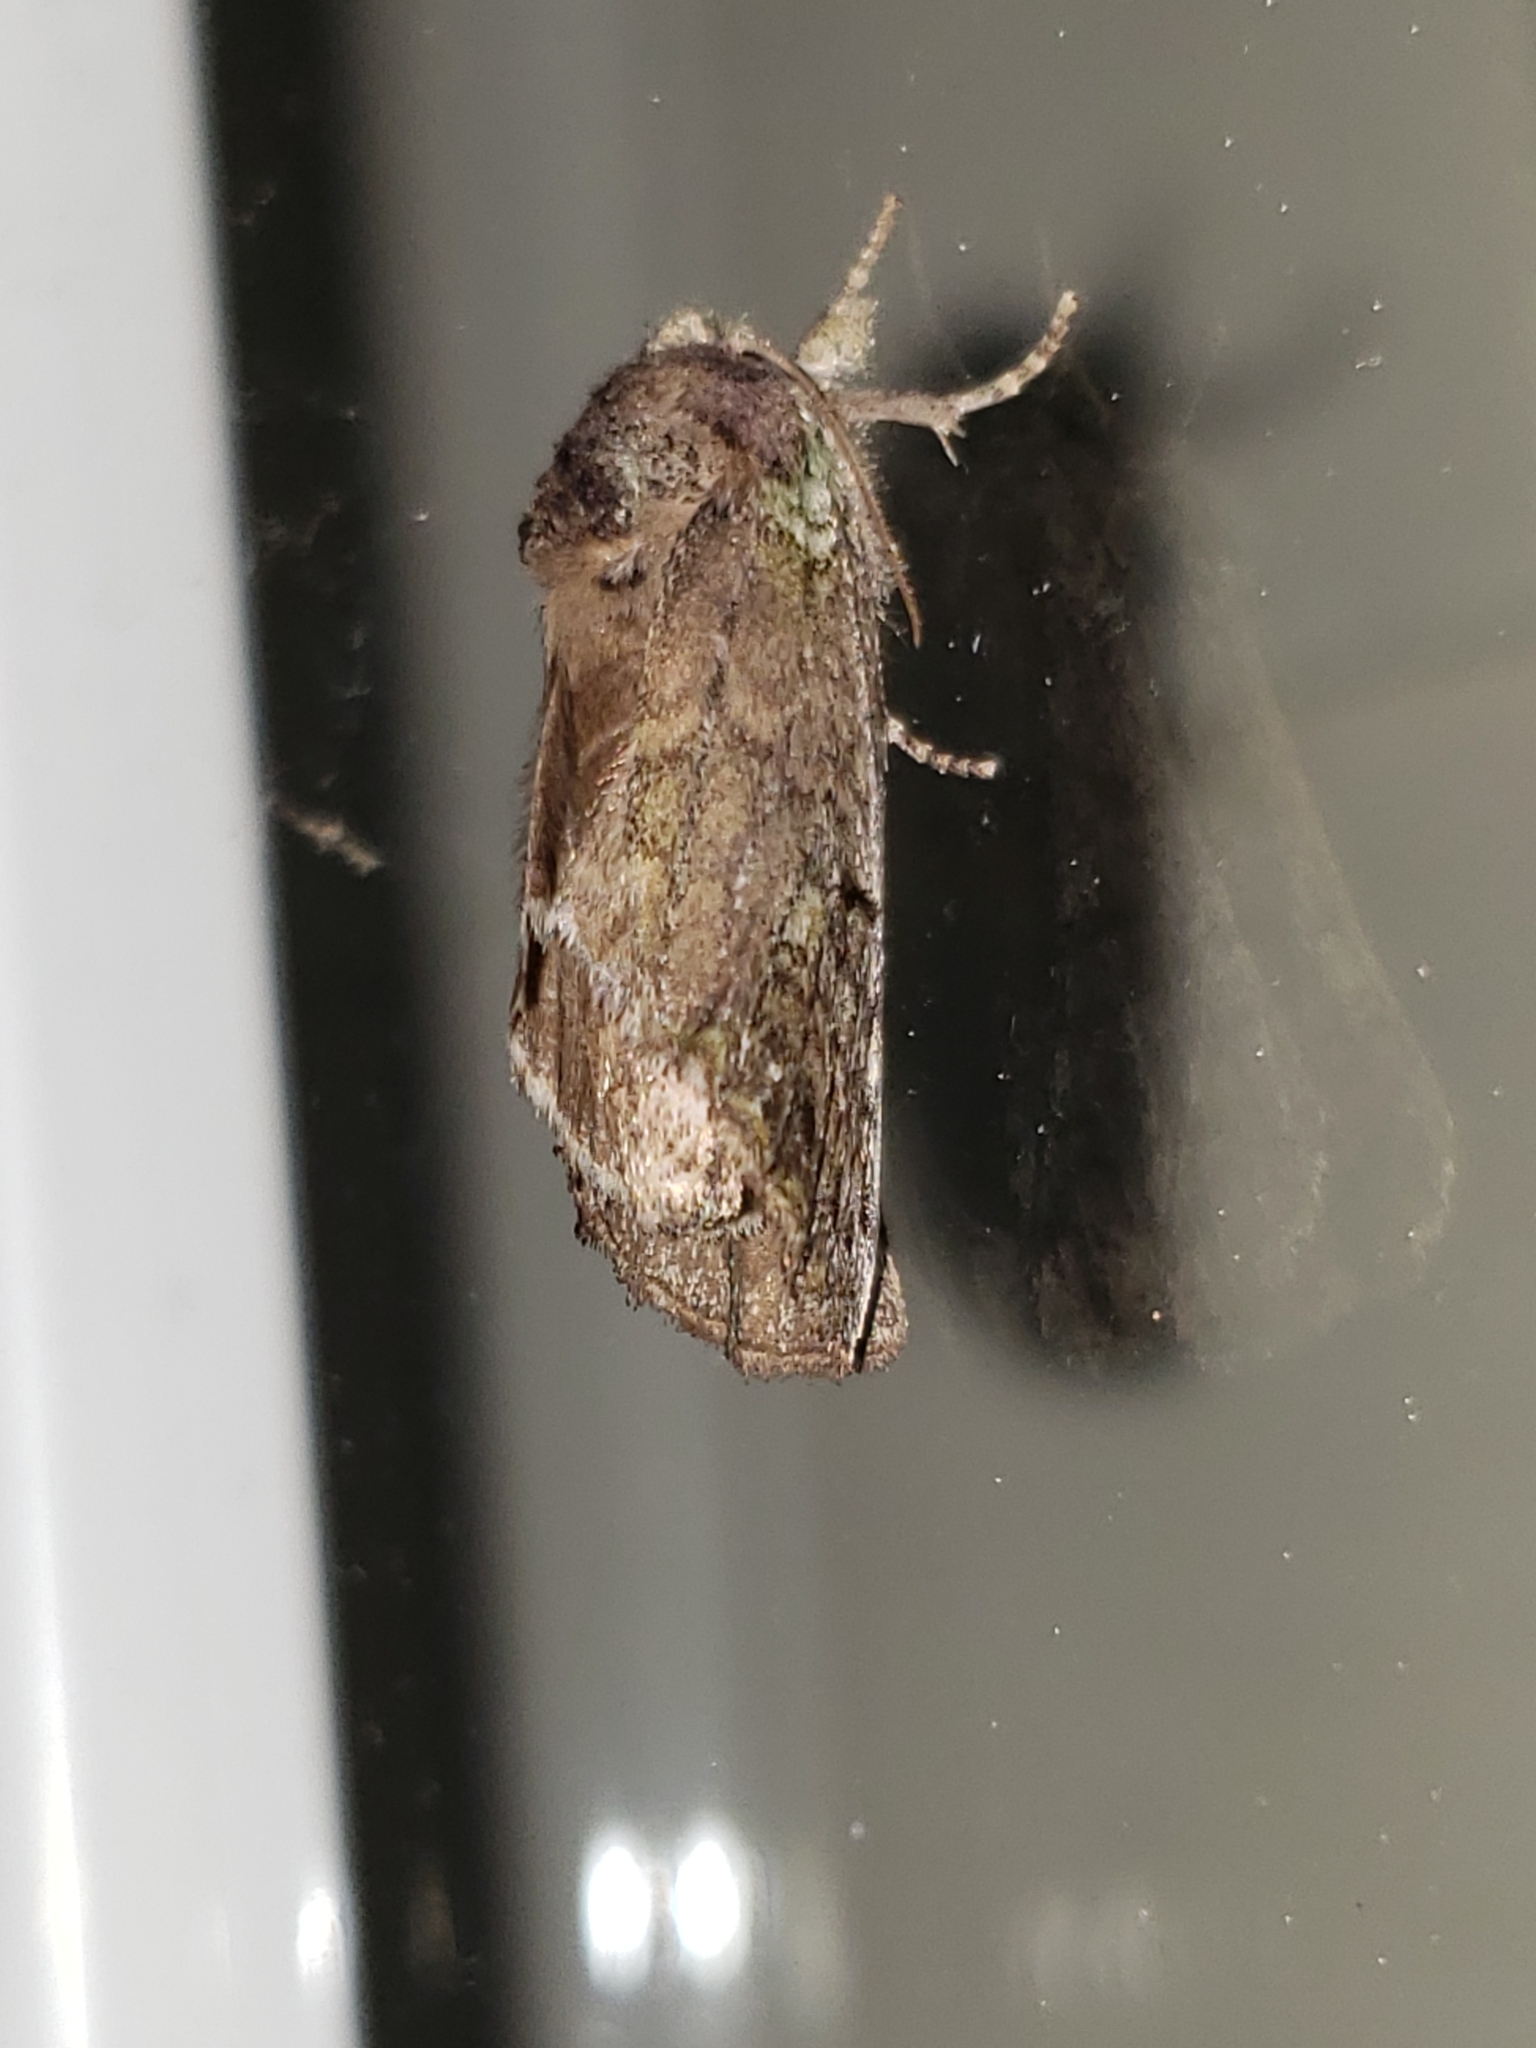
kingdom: Animalia
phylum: Arthropoda
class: Insecta
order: Lepidoptera
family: Notodontidae
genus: Schizura
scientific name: Schizura
